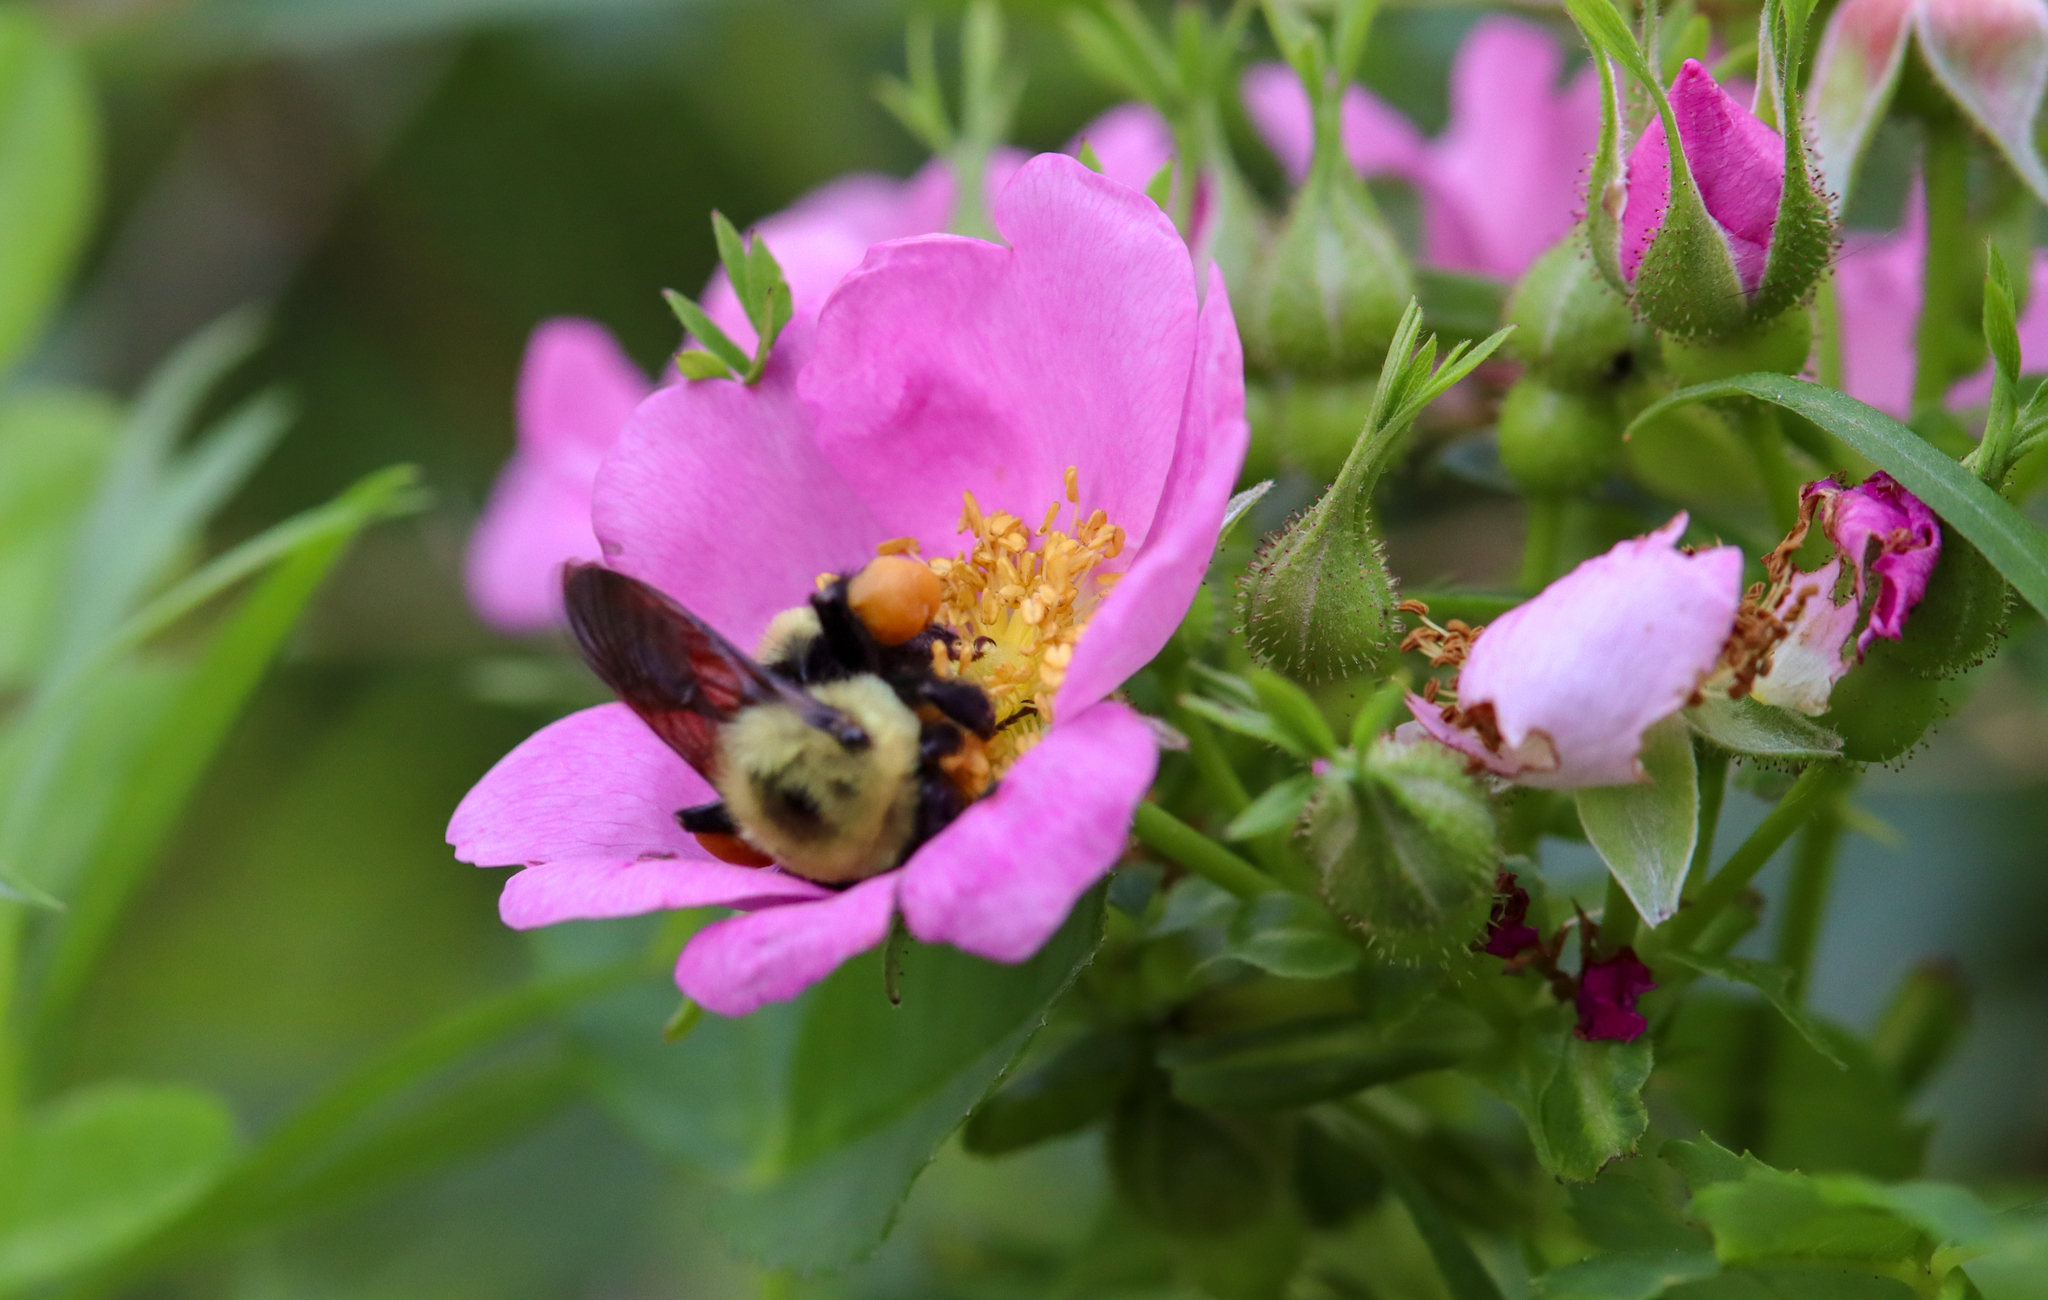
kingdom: Animalia
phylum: Arthropoda
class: Insecta
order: Hymenoptera
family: Apidae
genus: Bombus
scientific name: Bombus griseocollis
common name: Brown-belted bumble bee
